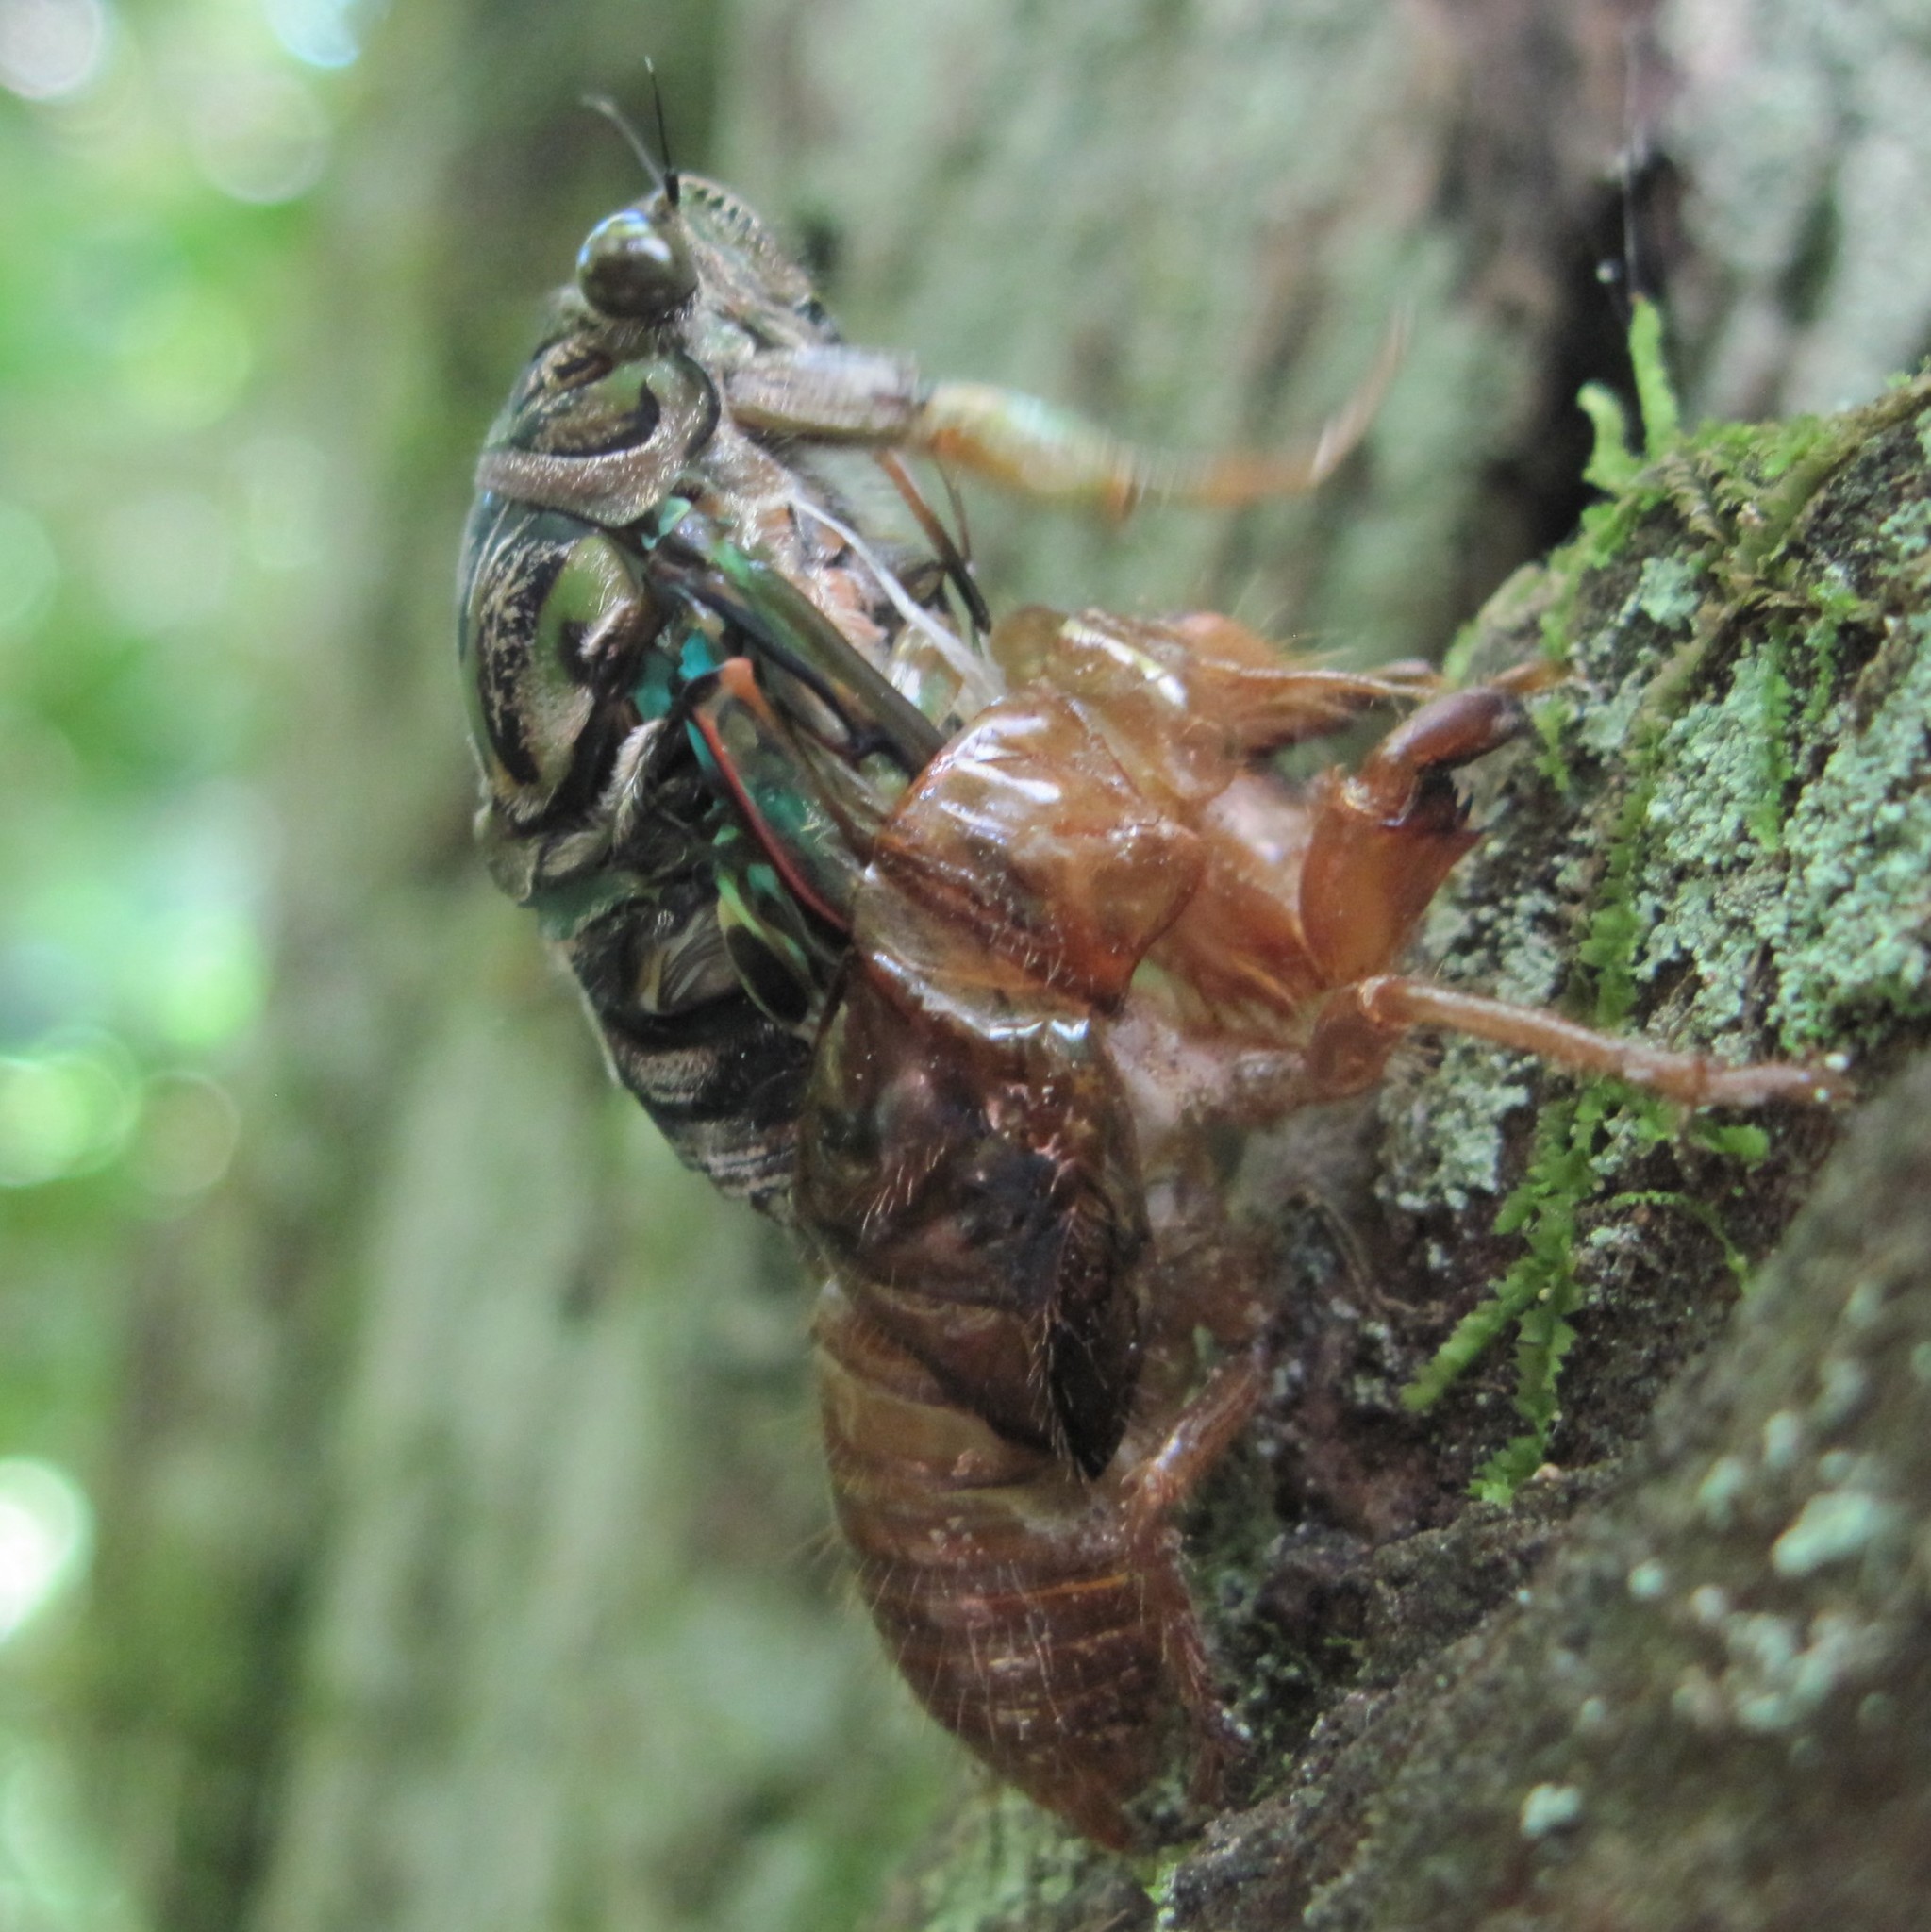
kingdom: Animalia
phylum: Arthropoda
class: Insecta
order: Hemiptera
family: Cicadidae
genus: Amphipsalta
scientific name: Amphipsalta zelandica
